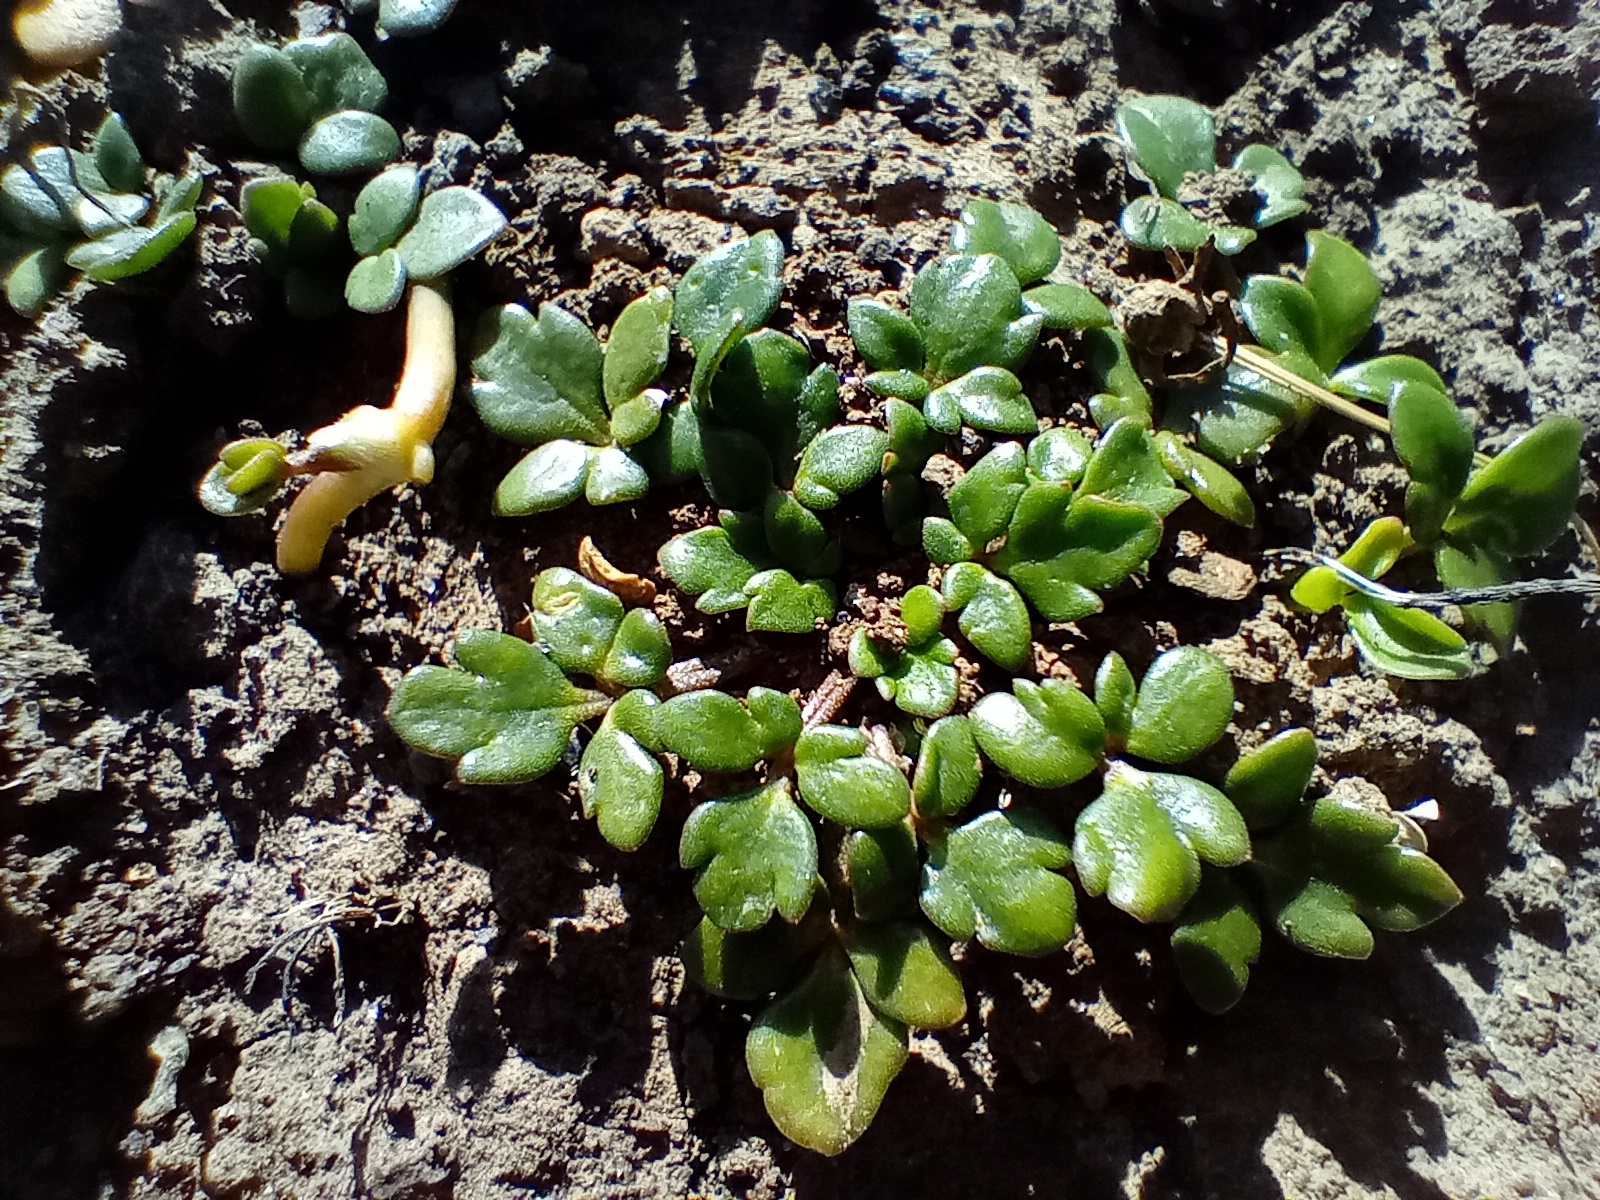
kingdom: Plantae
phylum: Tracheophyta
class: Magnoliopsida
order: Ranunculales
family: Ranunculaceae
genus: Ranunculus
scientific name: Ranunculus acaulis
